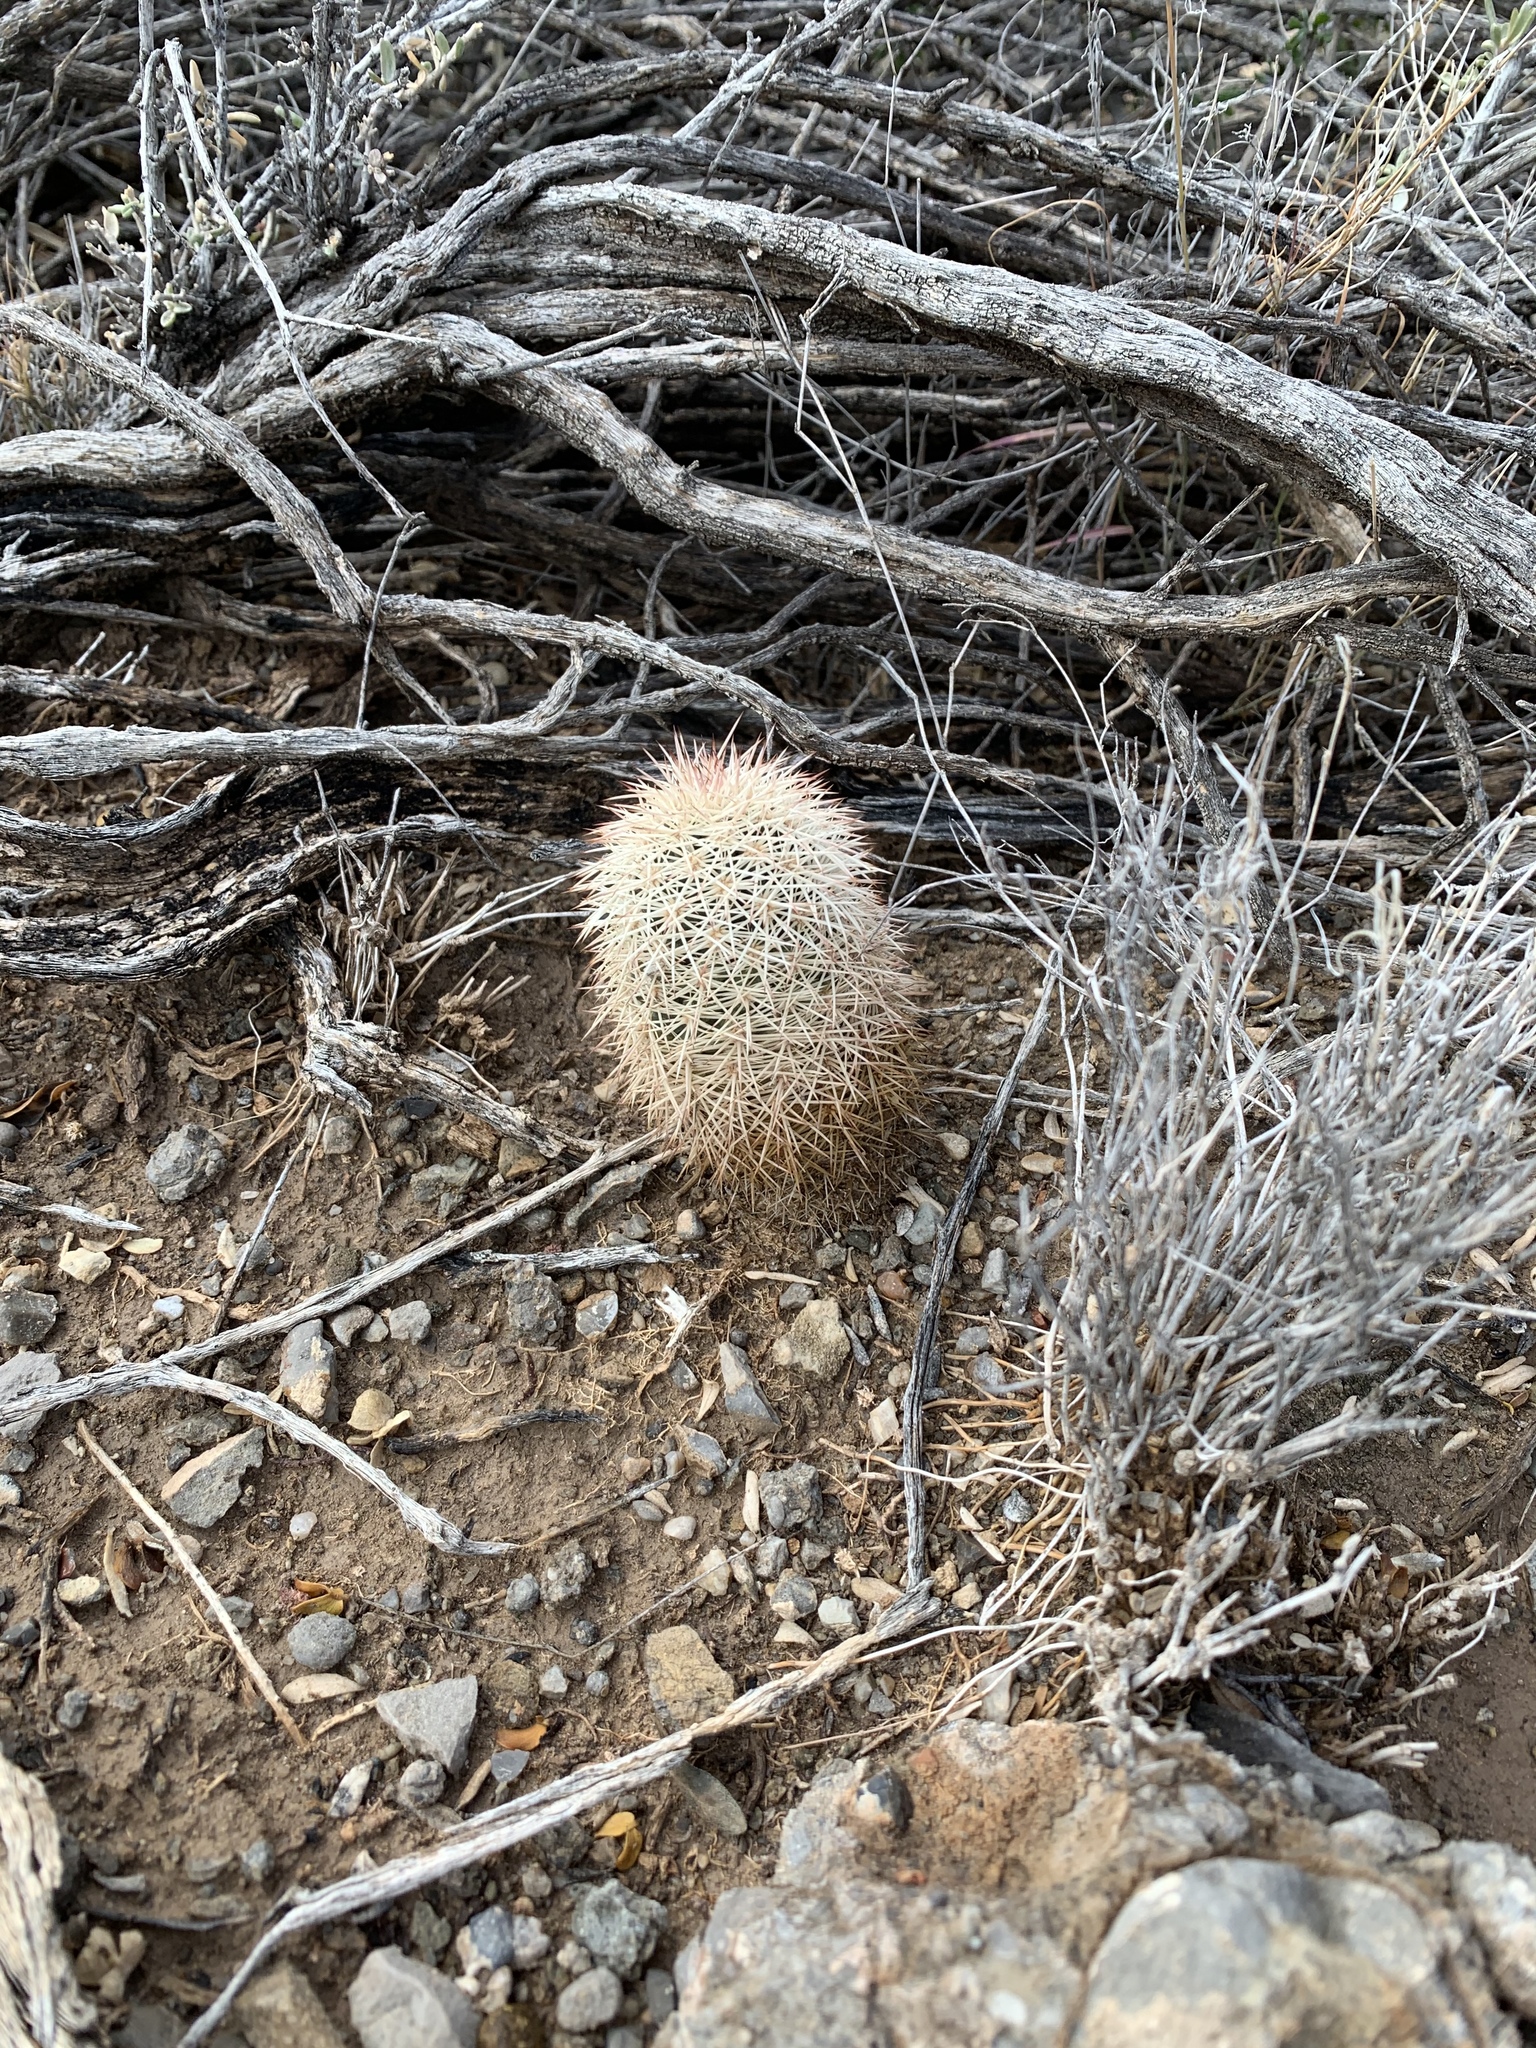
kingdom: Plantae
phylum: Tracheophyta
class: Magnoliopsida
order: Caryophyllales
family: Cactaceae
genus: Echinocereus
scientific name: Echinocereus dasyacanthus
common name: Spiny hedgehog cactus
